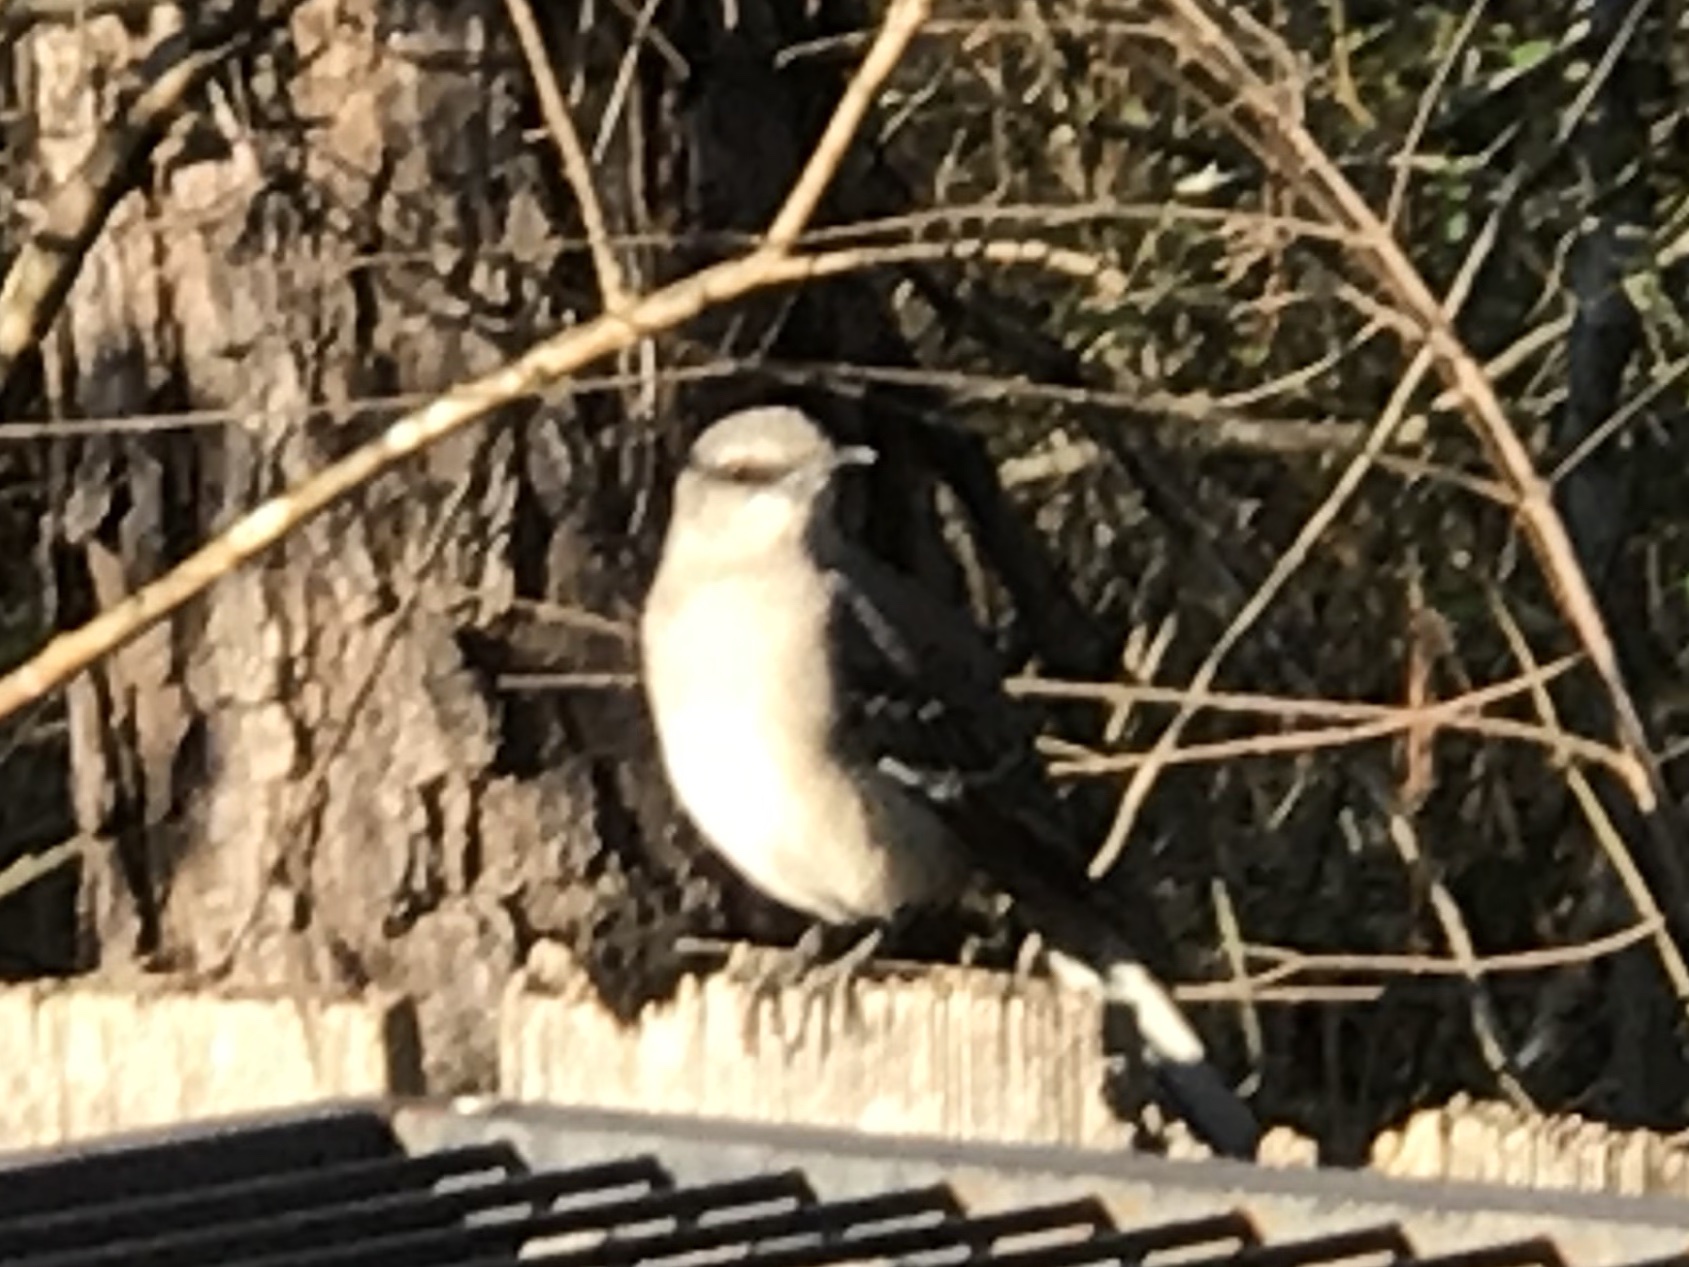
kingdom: Animalia
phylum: Chordata
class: Aves
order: Passeriformes
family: Mimidae
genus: Mimus
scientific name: Mimus polyglottos
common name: Northern mockingbird
